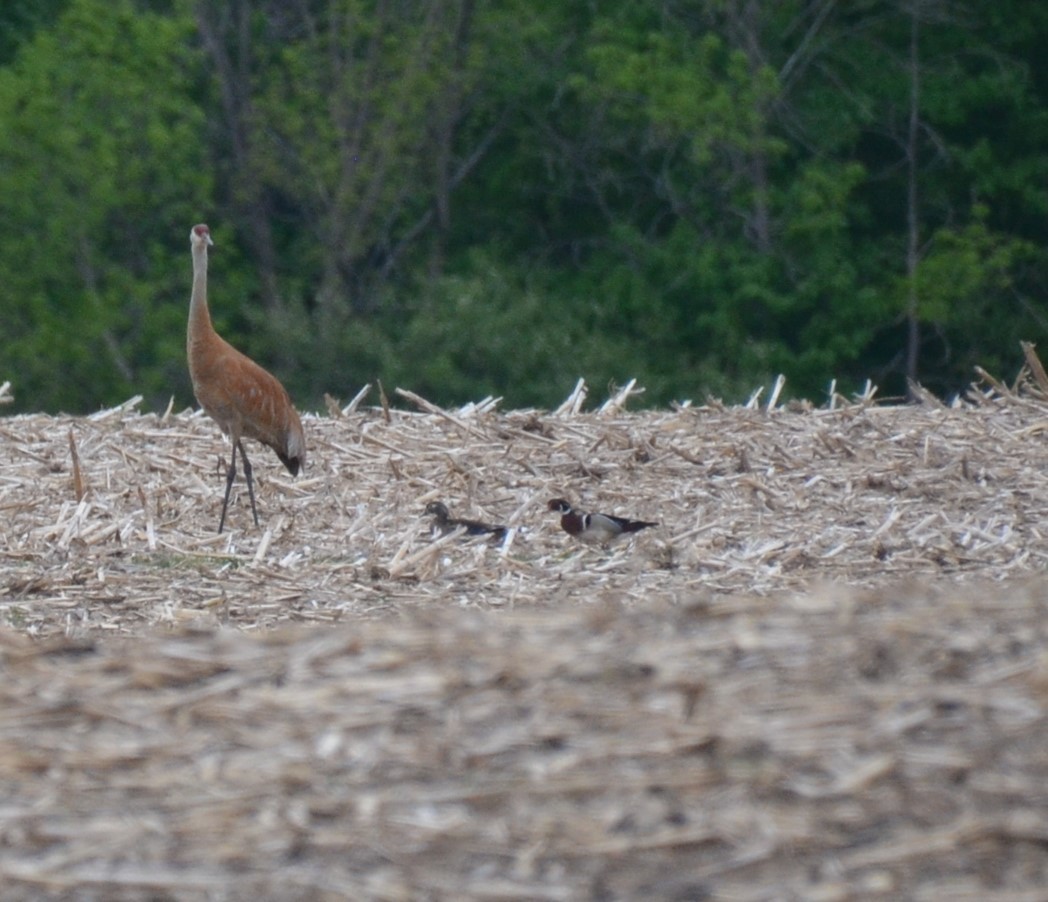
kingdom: Animalia
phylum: Chordata
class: Aves
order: Anseriformes
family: Anatidae
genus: Aix
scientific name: Aix sponsa
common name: Wood duck
